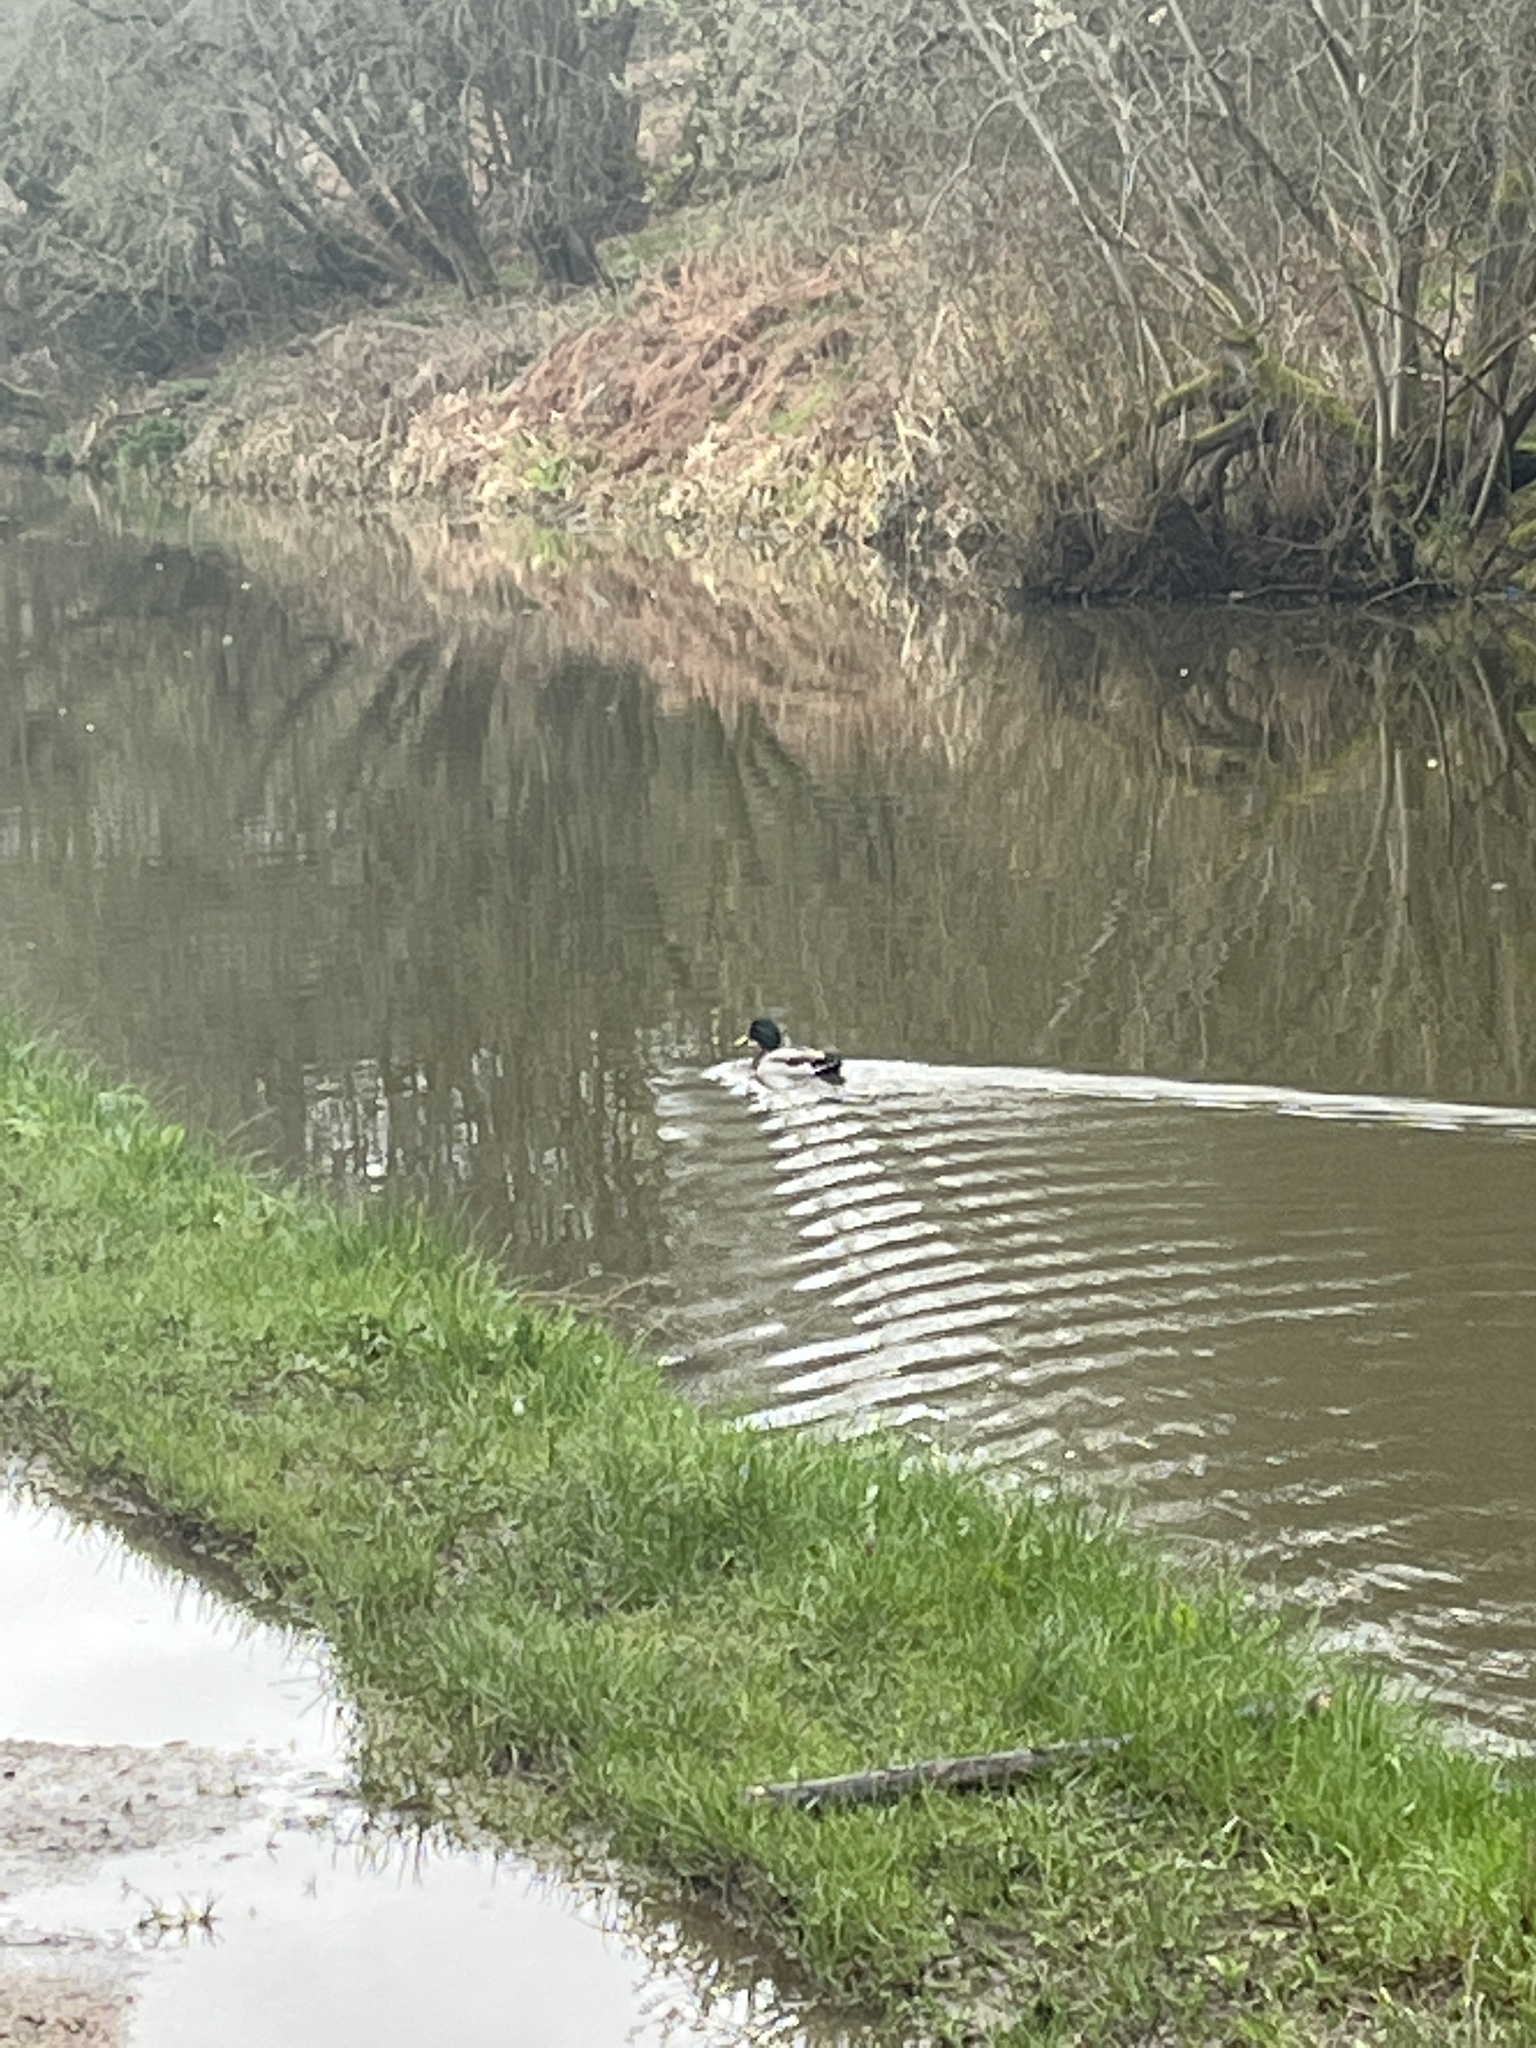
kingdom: Animalia
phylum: Chordata
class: Aves
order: Anseriformes
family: Anatidae
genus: Anas
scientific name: Anas platyrhynchos
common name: Mallard
